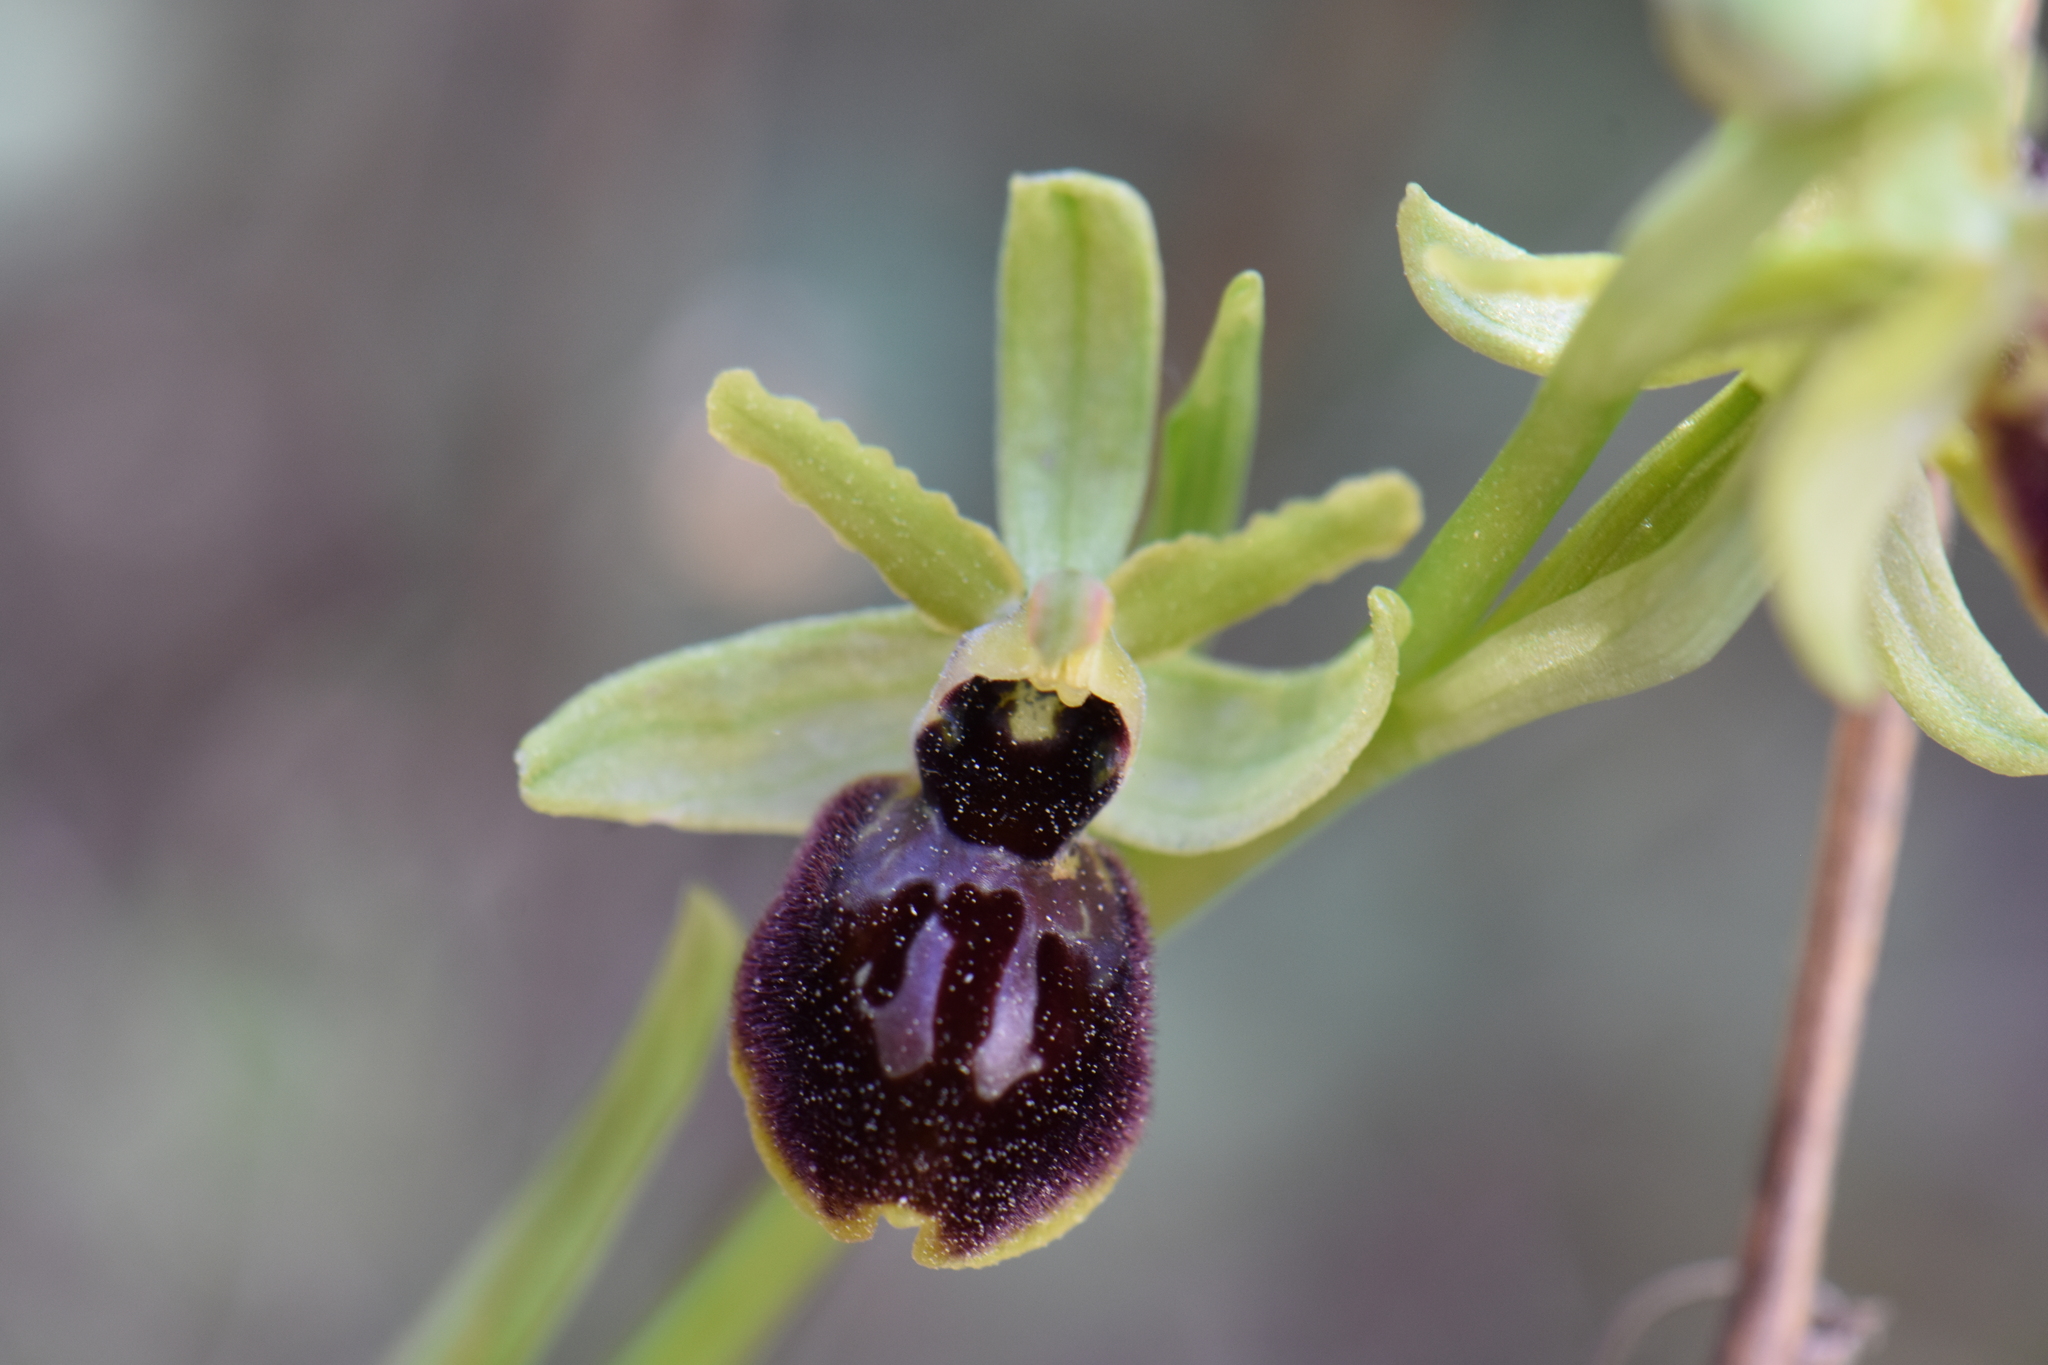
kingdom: Plantae
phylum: Tracheophyta
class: Liliopsida
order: Asparagales
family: Orchidaceae
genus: Ophrys
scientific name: Ophrys sphegodes
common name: Early spider-orchid
